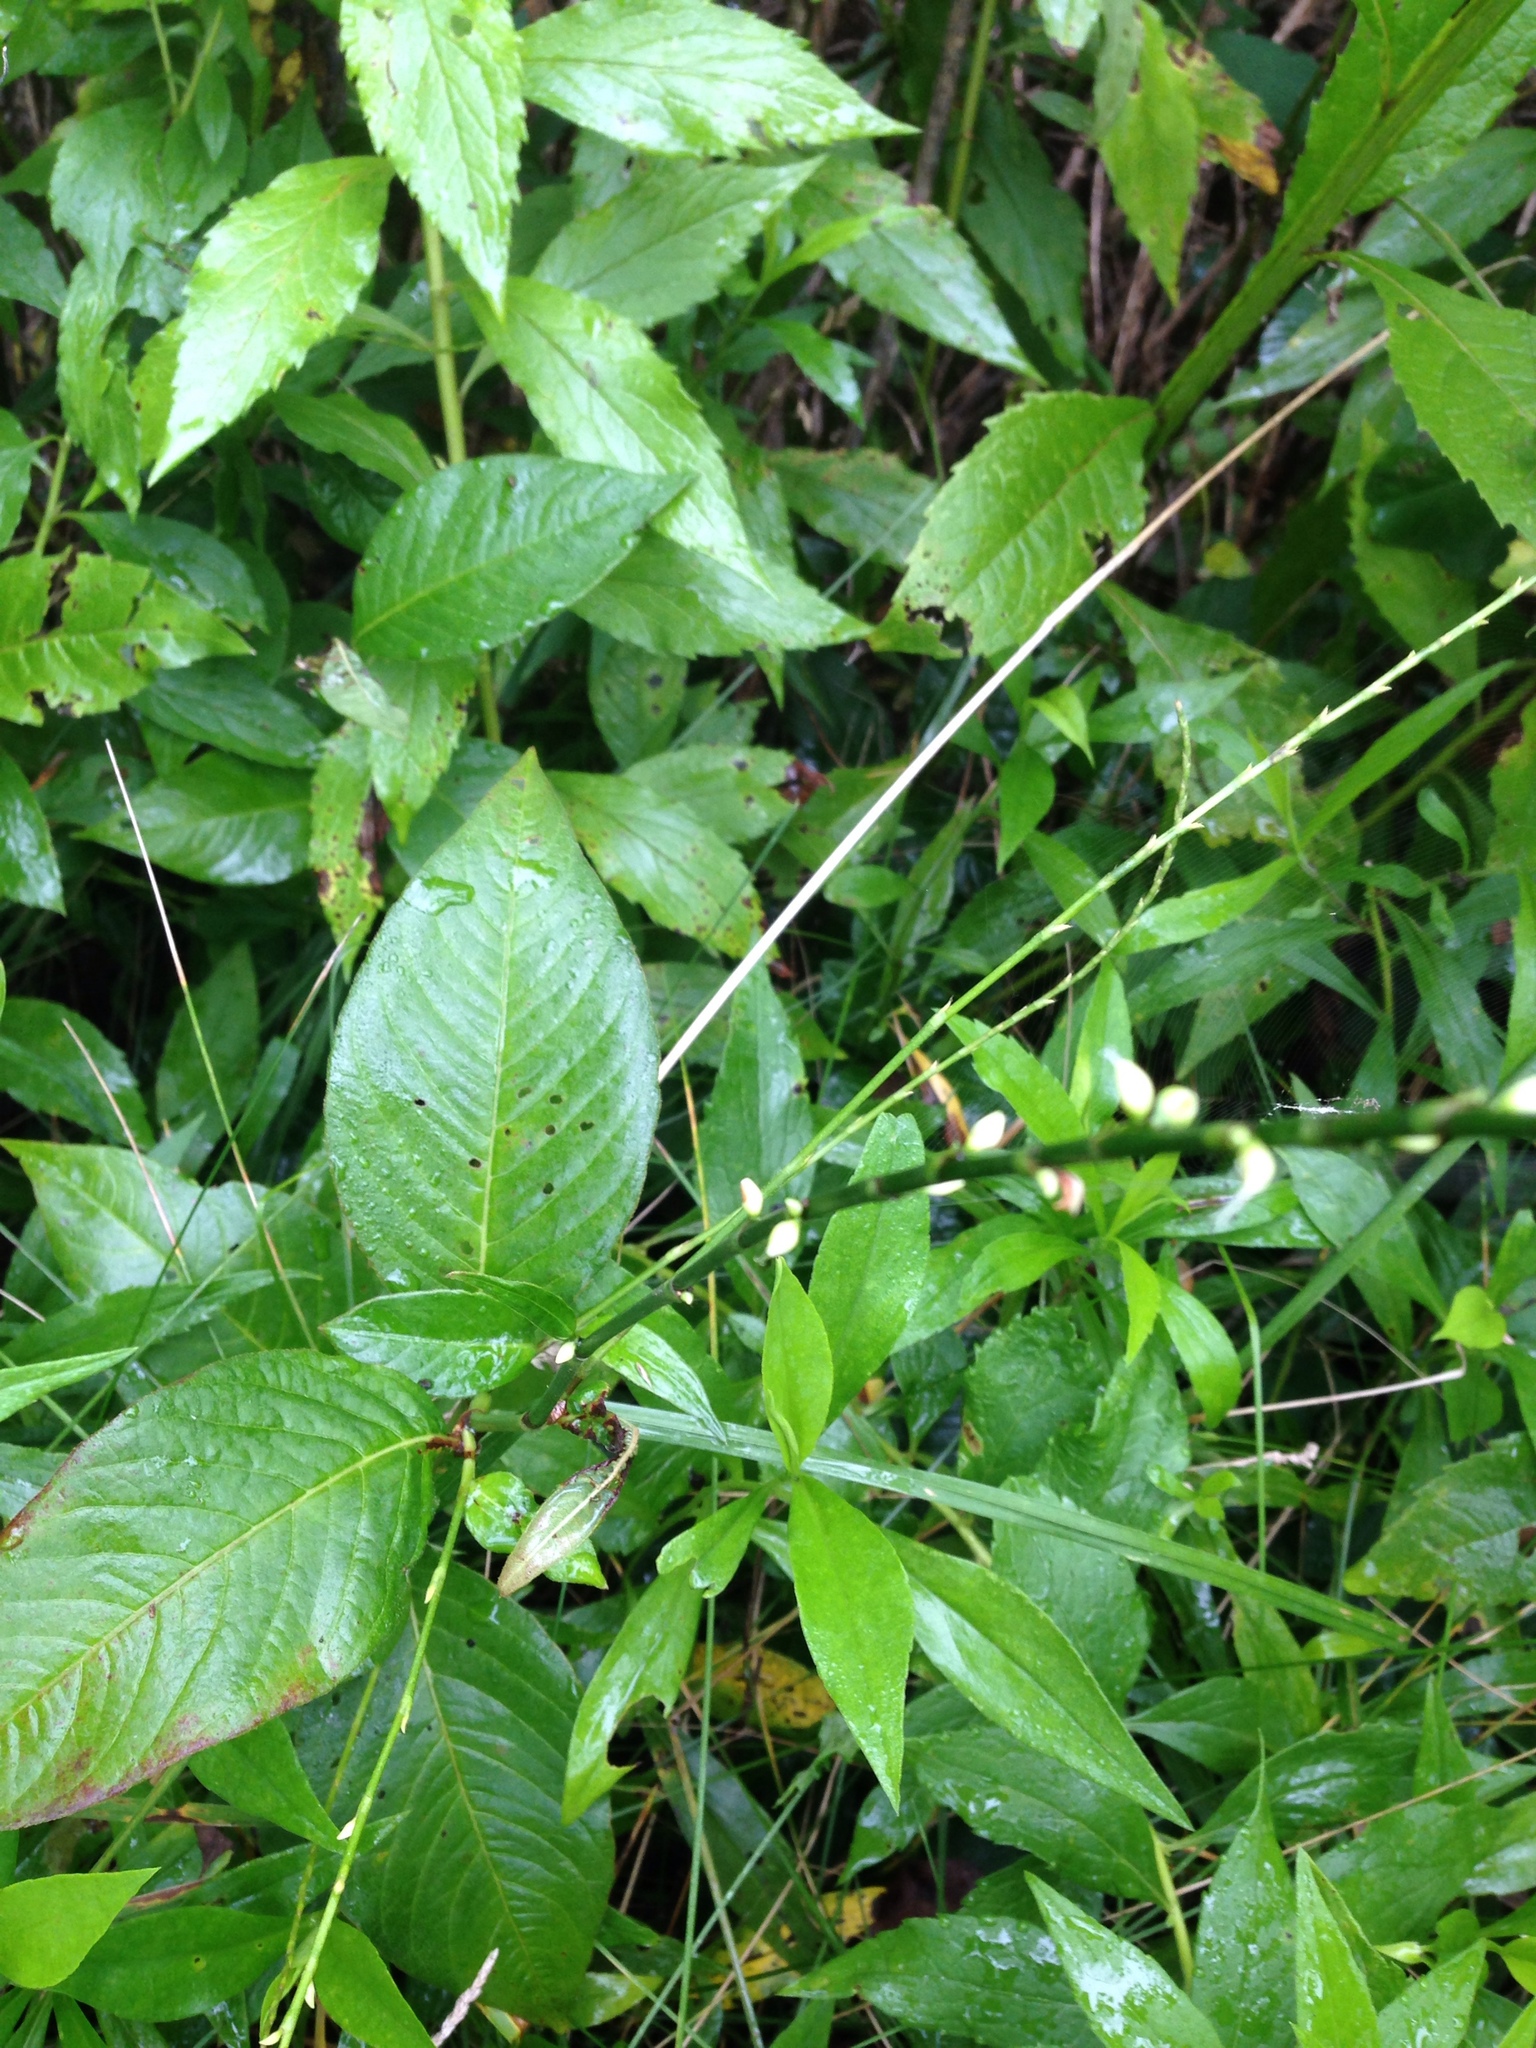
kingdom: Plantae
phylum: Tracheophyta
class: Magnoliopsida
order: Caryophyllales
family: Polygonaceae
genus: Persicaria
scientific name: Persicaria virginiana
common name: Jumpseed
